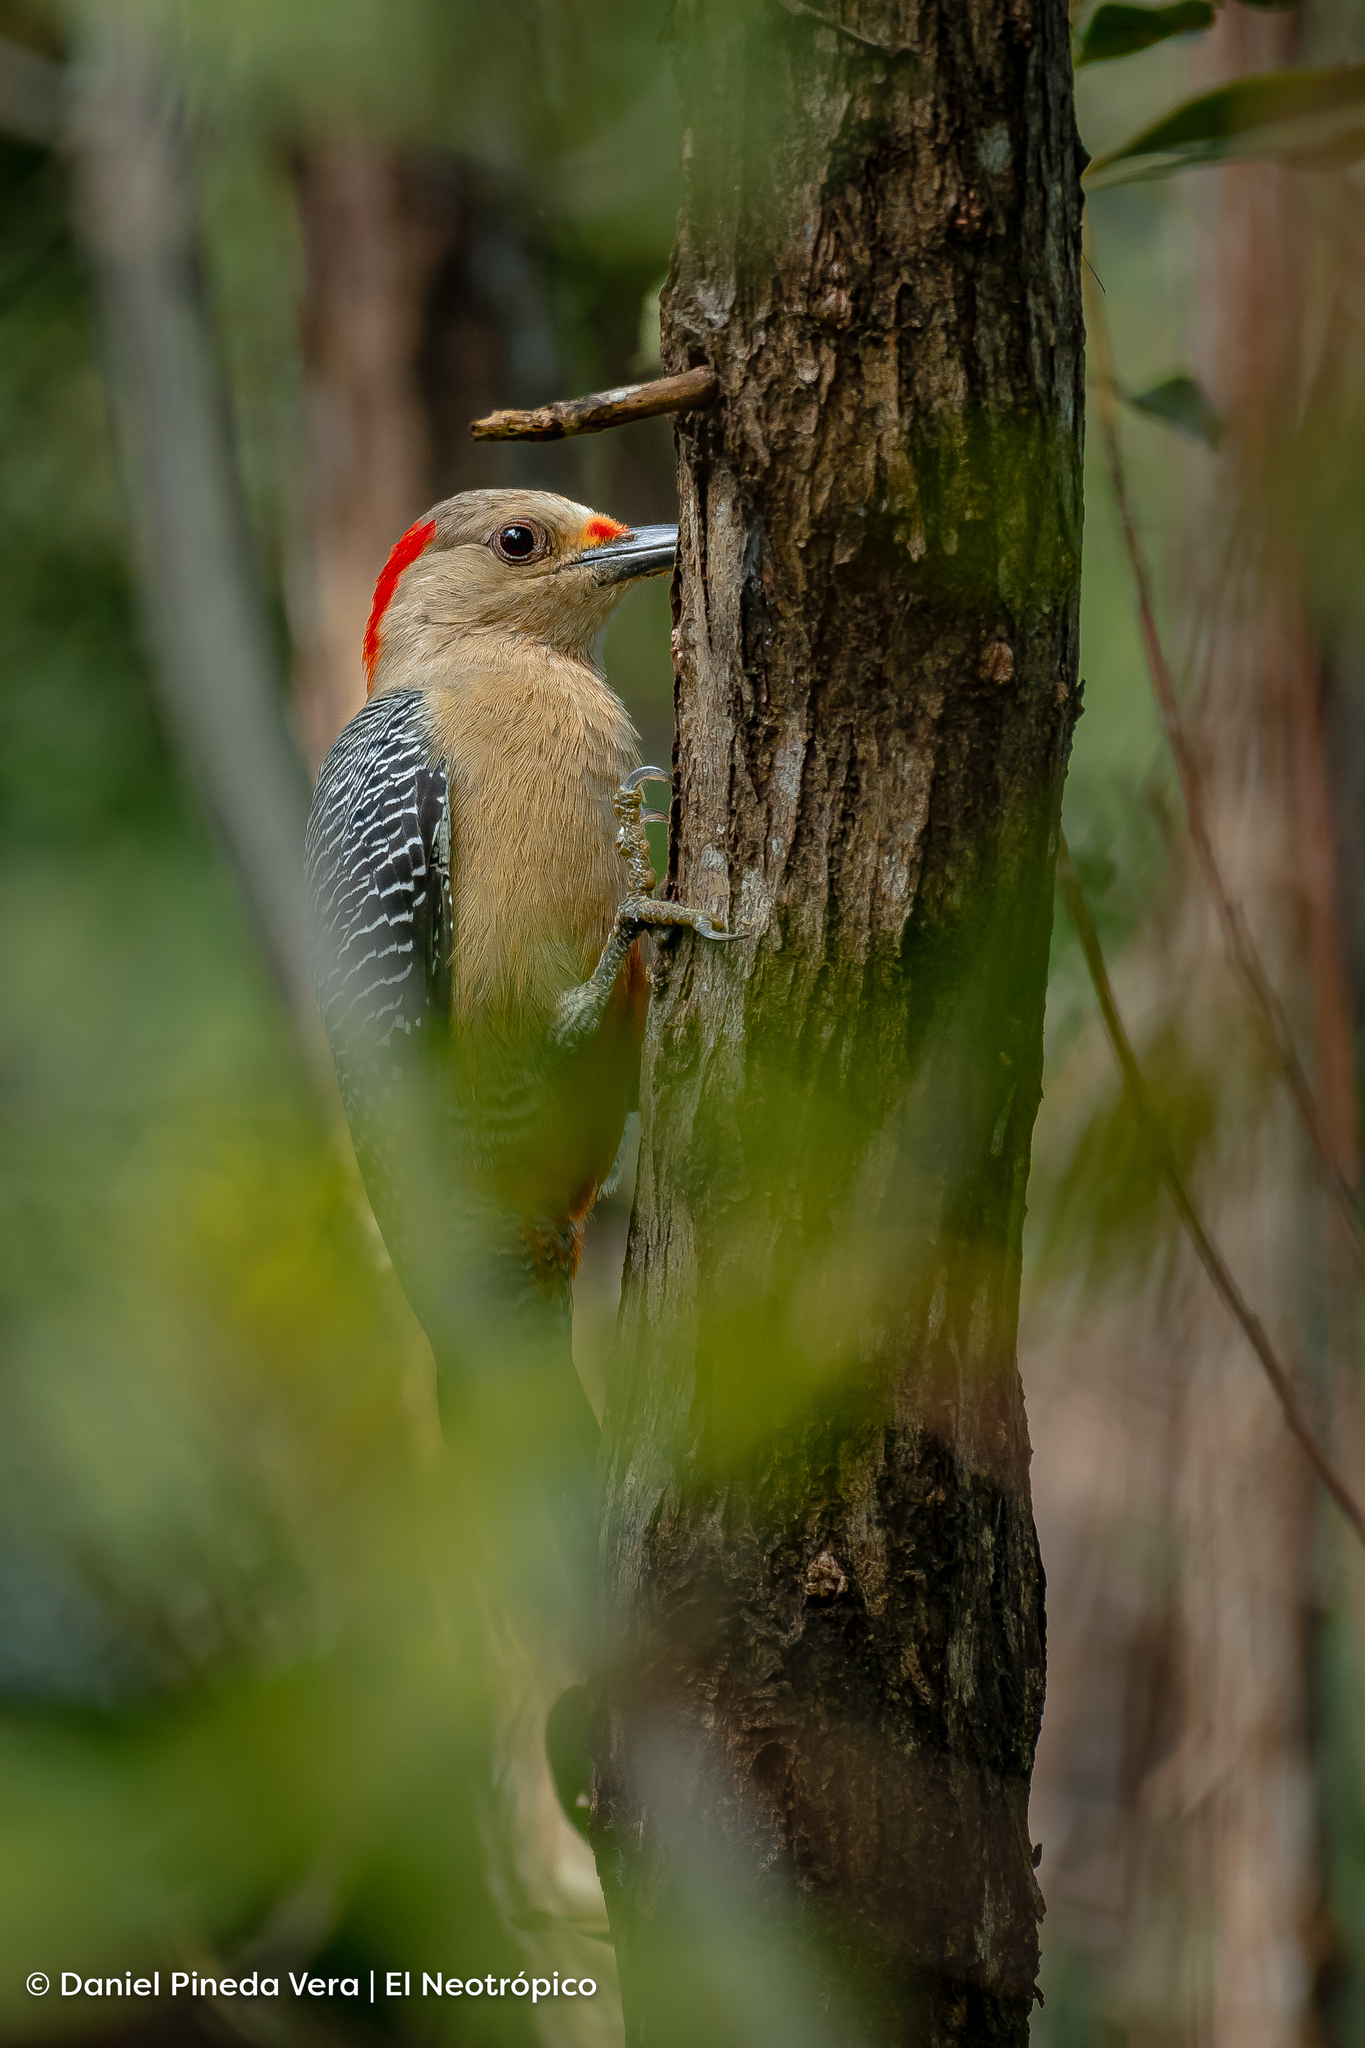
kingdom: Animalia
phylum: Chordata
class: Aves
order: Piciformes
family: Picidae
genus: Melanerpes
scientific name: Melanerpes aurifrons
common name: Golden-fronted woodpecker
